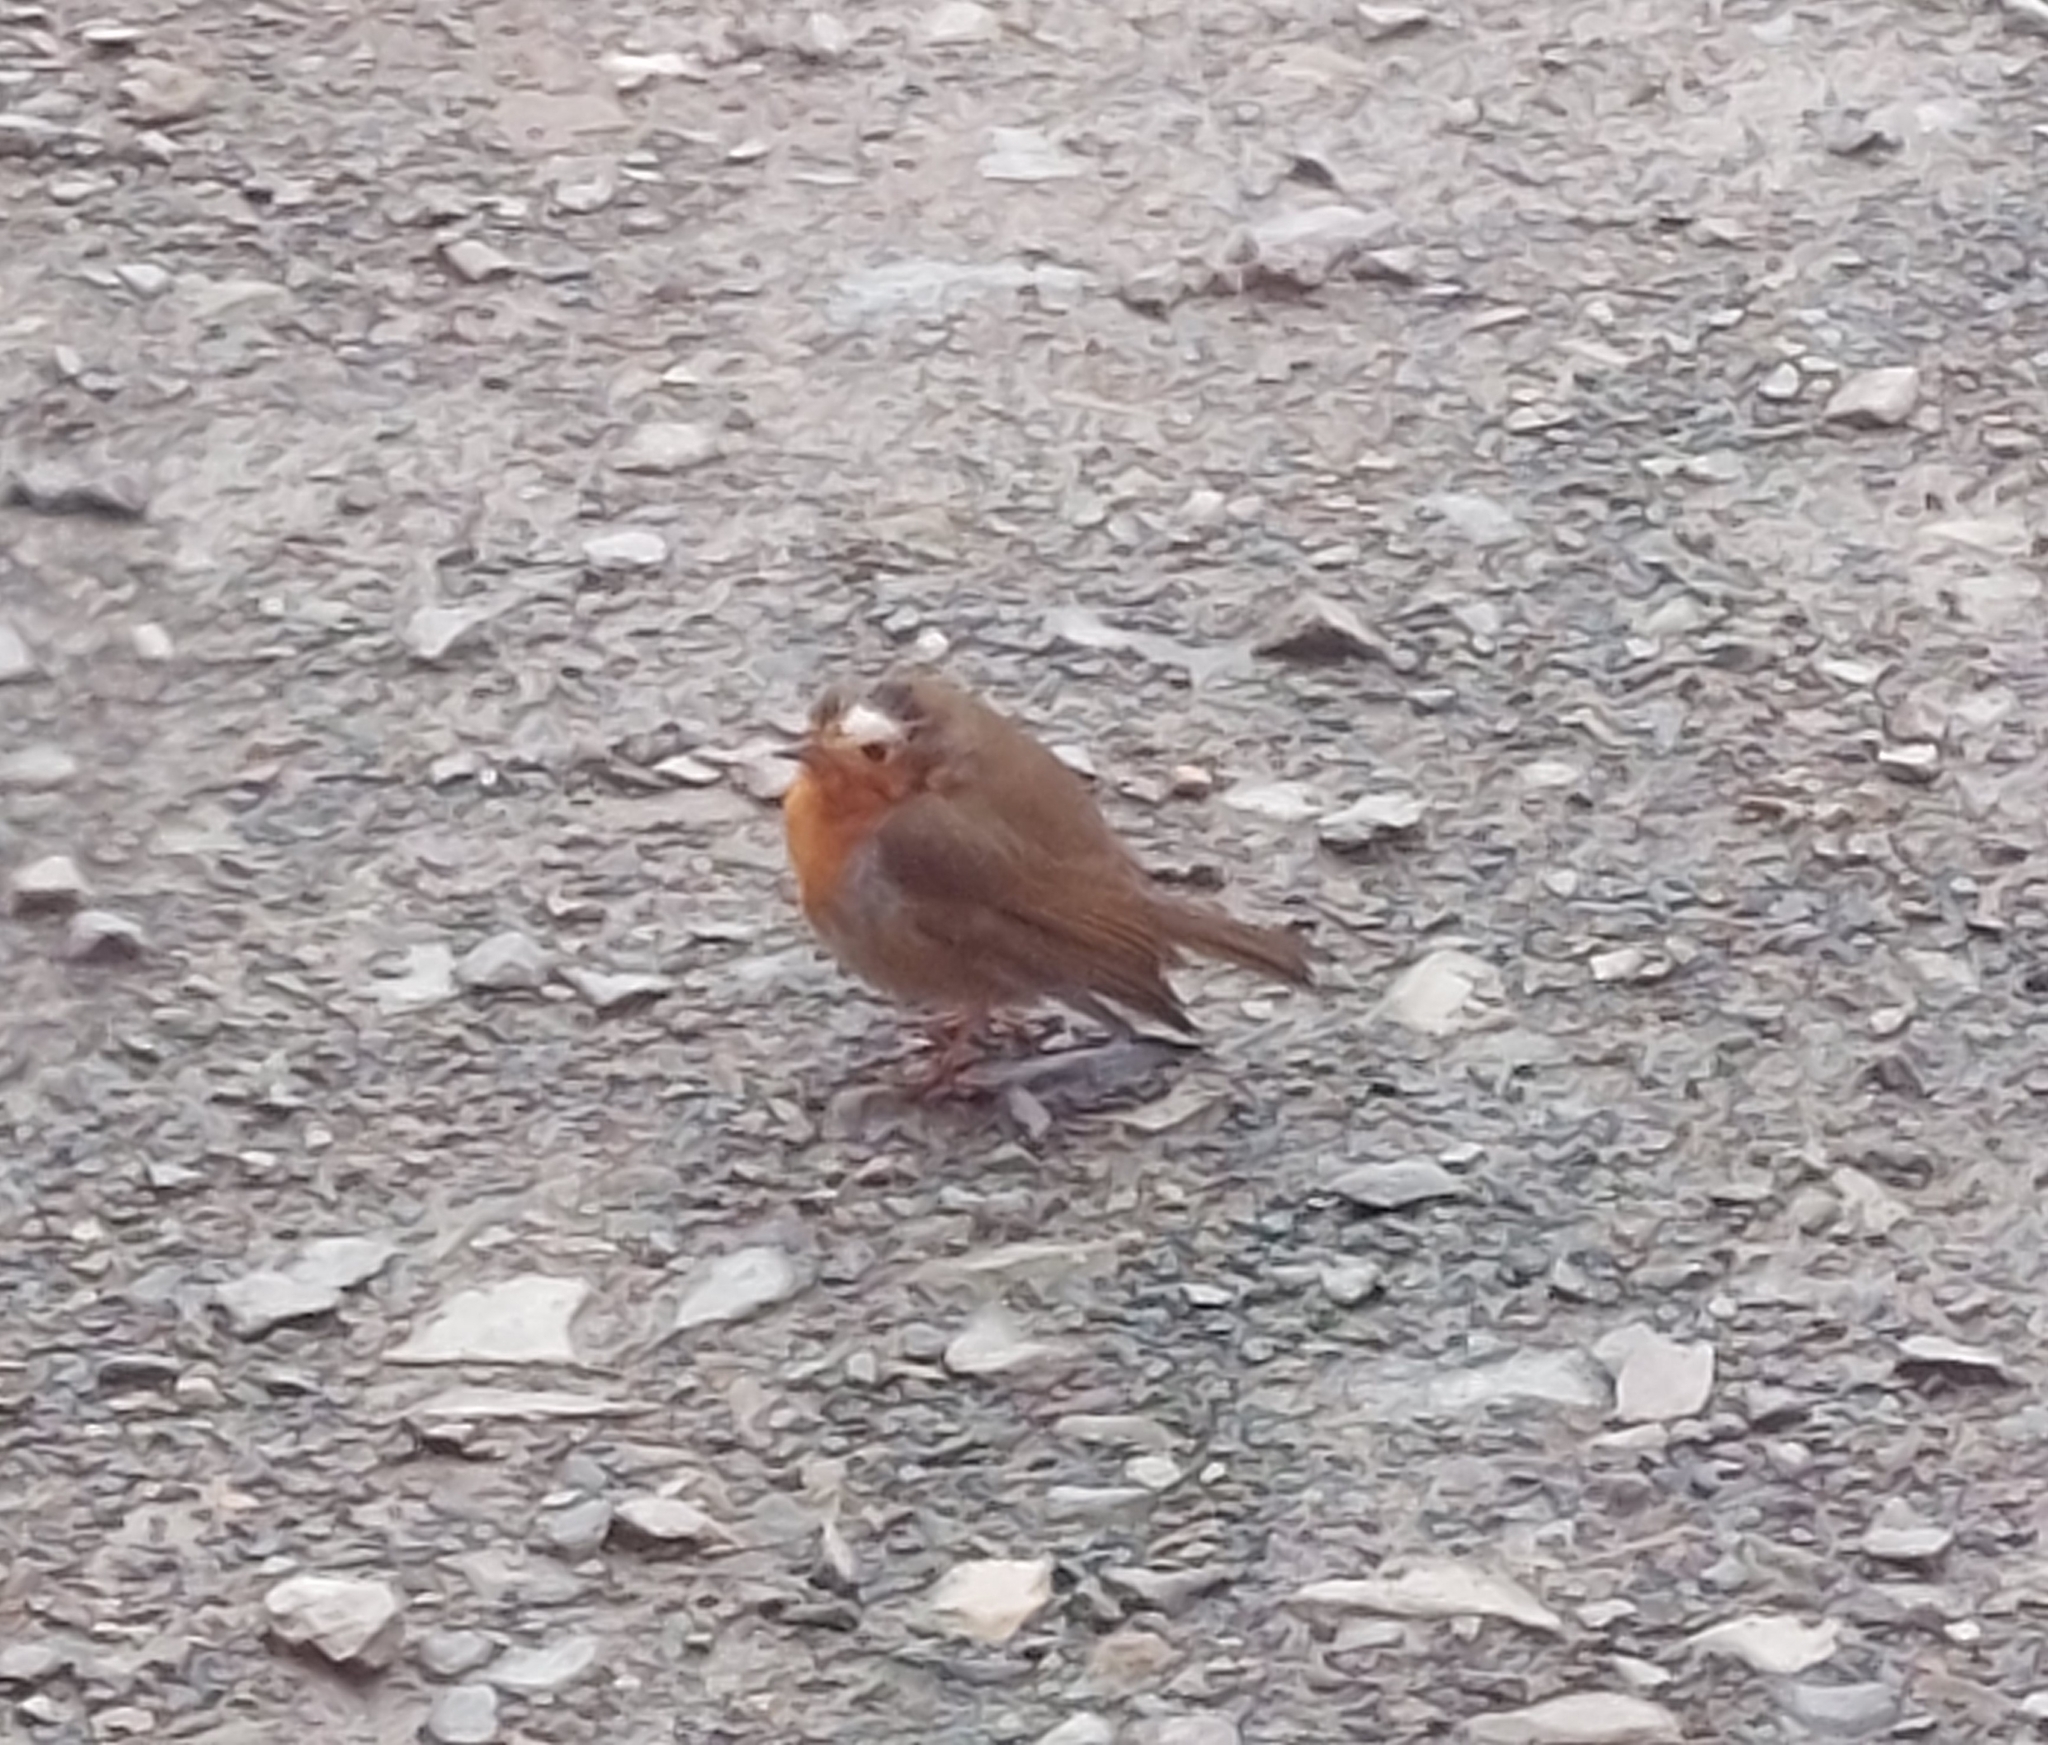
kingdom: Animalia
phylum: Chordata
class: Aves
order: Passeriformes
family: Muscicapidae
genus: Erithacus
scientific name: Erithacus rubecula
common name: European robin
